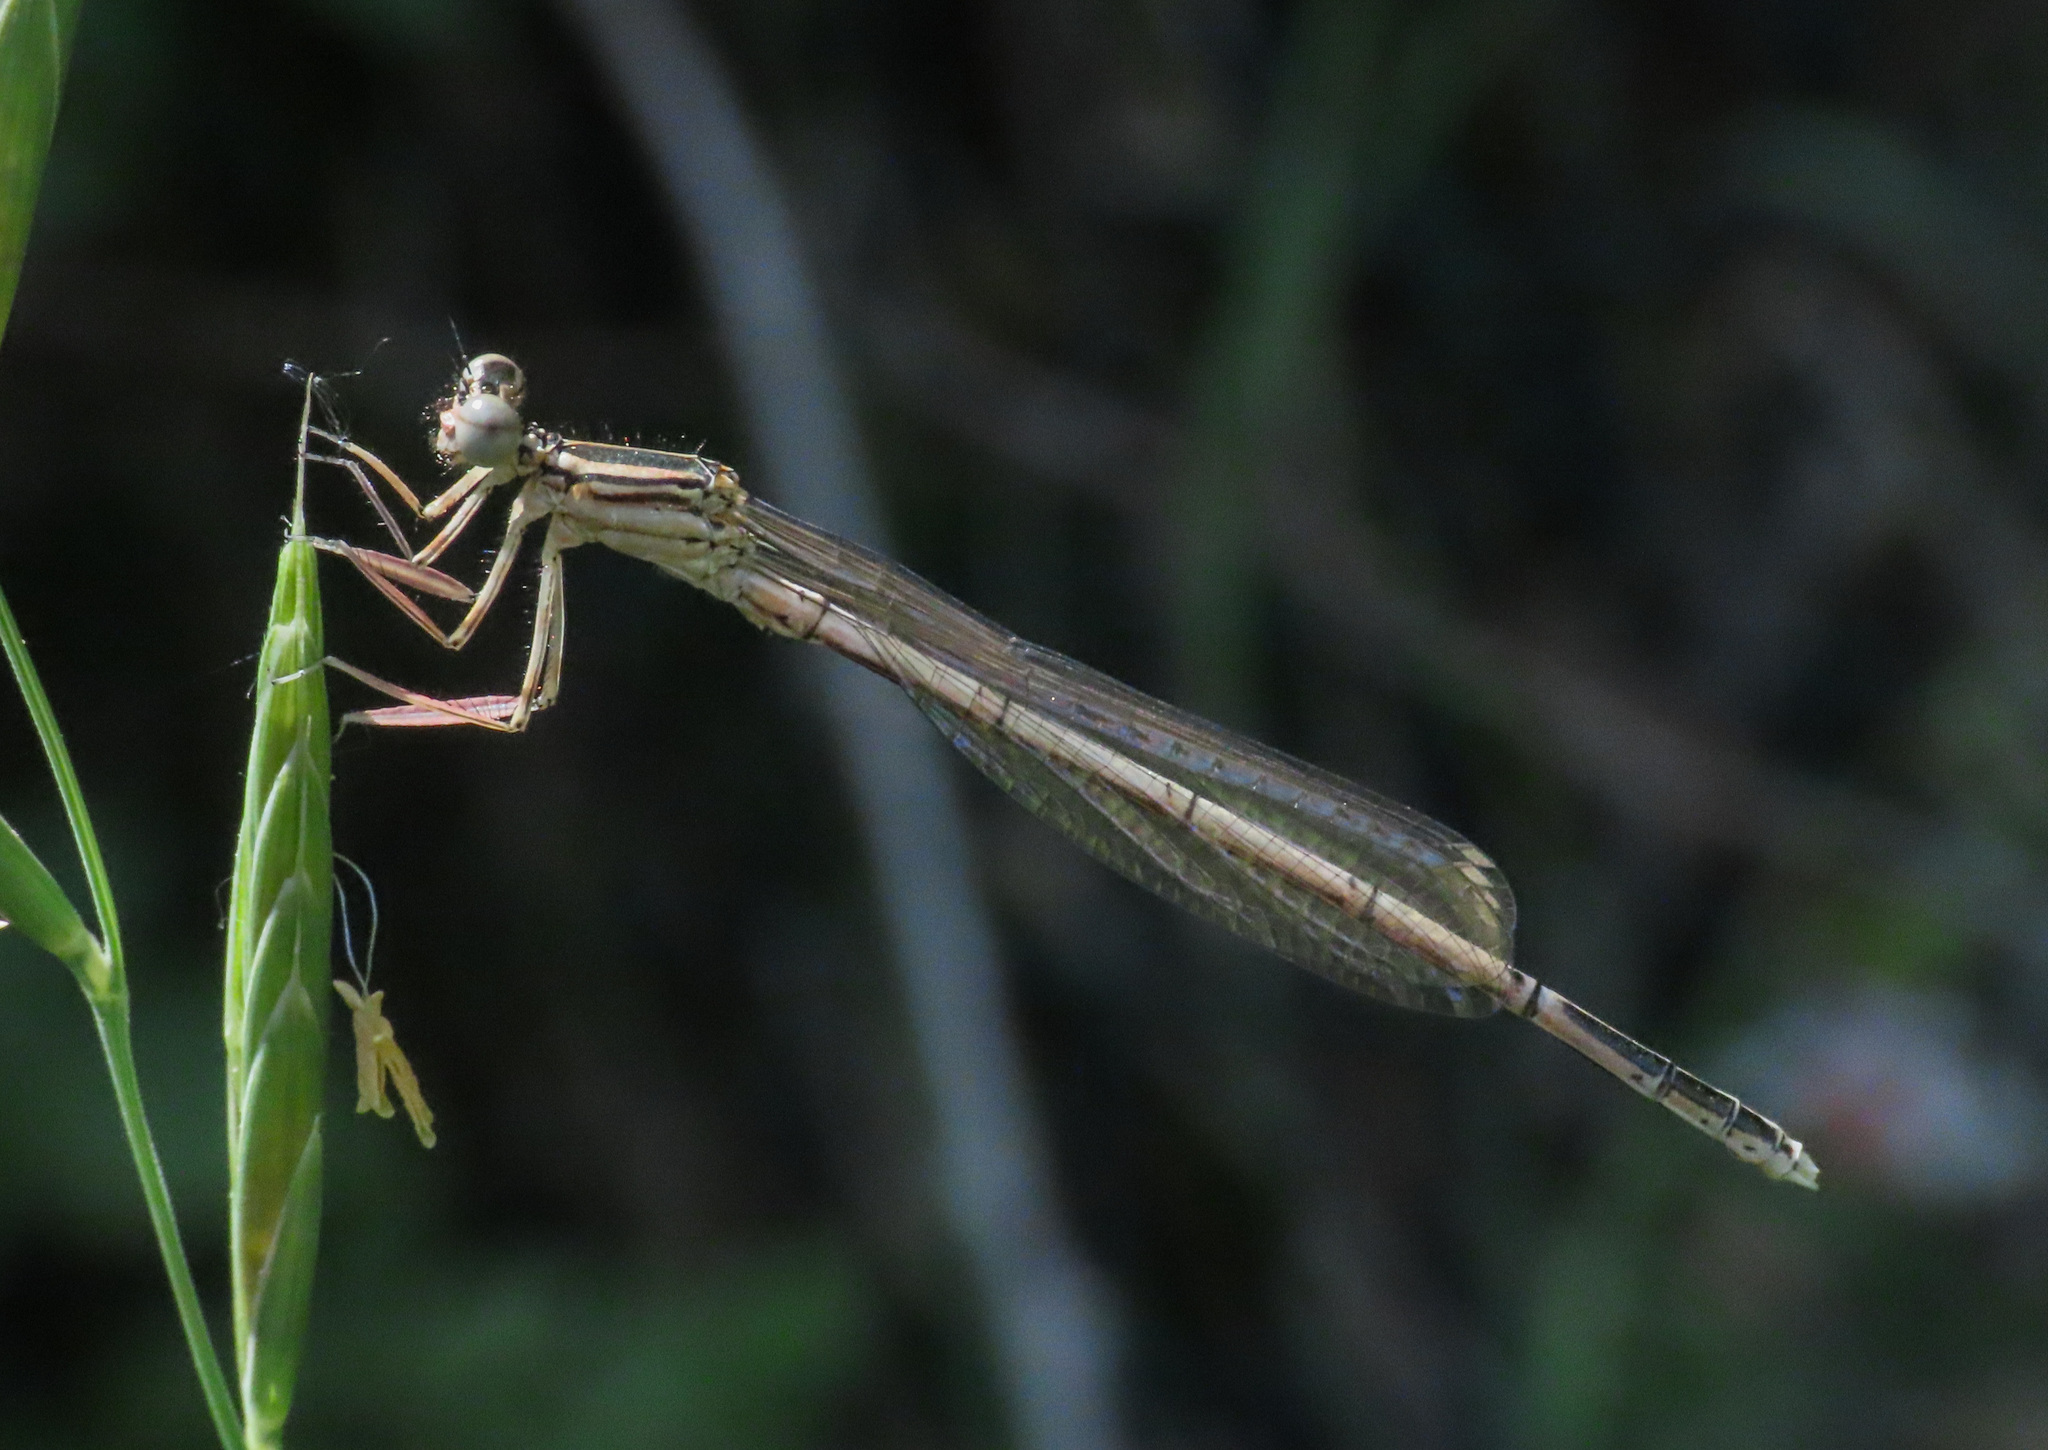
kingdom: Animalia
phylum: Arthropoda
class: Insecta
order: Odonata
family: Platycnemididae
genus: Platycnemis
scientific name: Platycnemis pennipes
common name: White-legged damselfly
